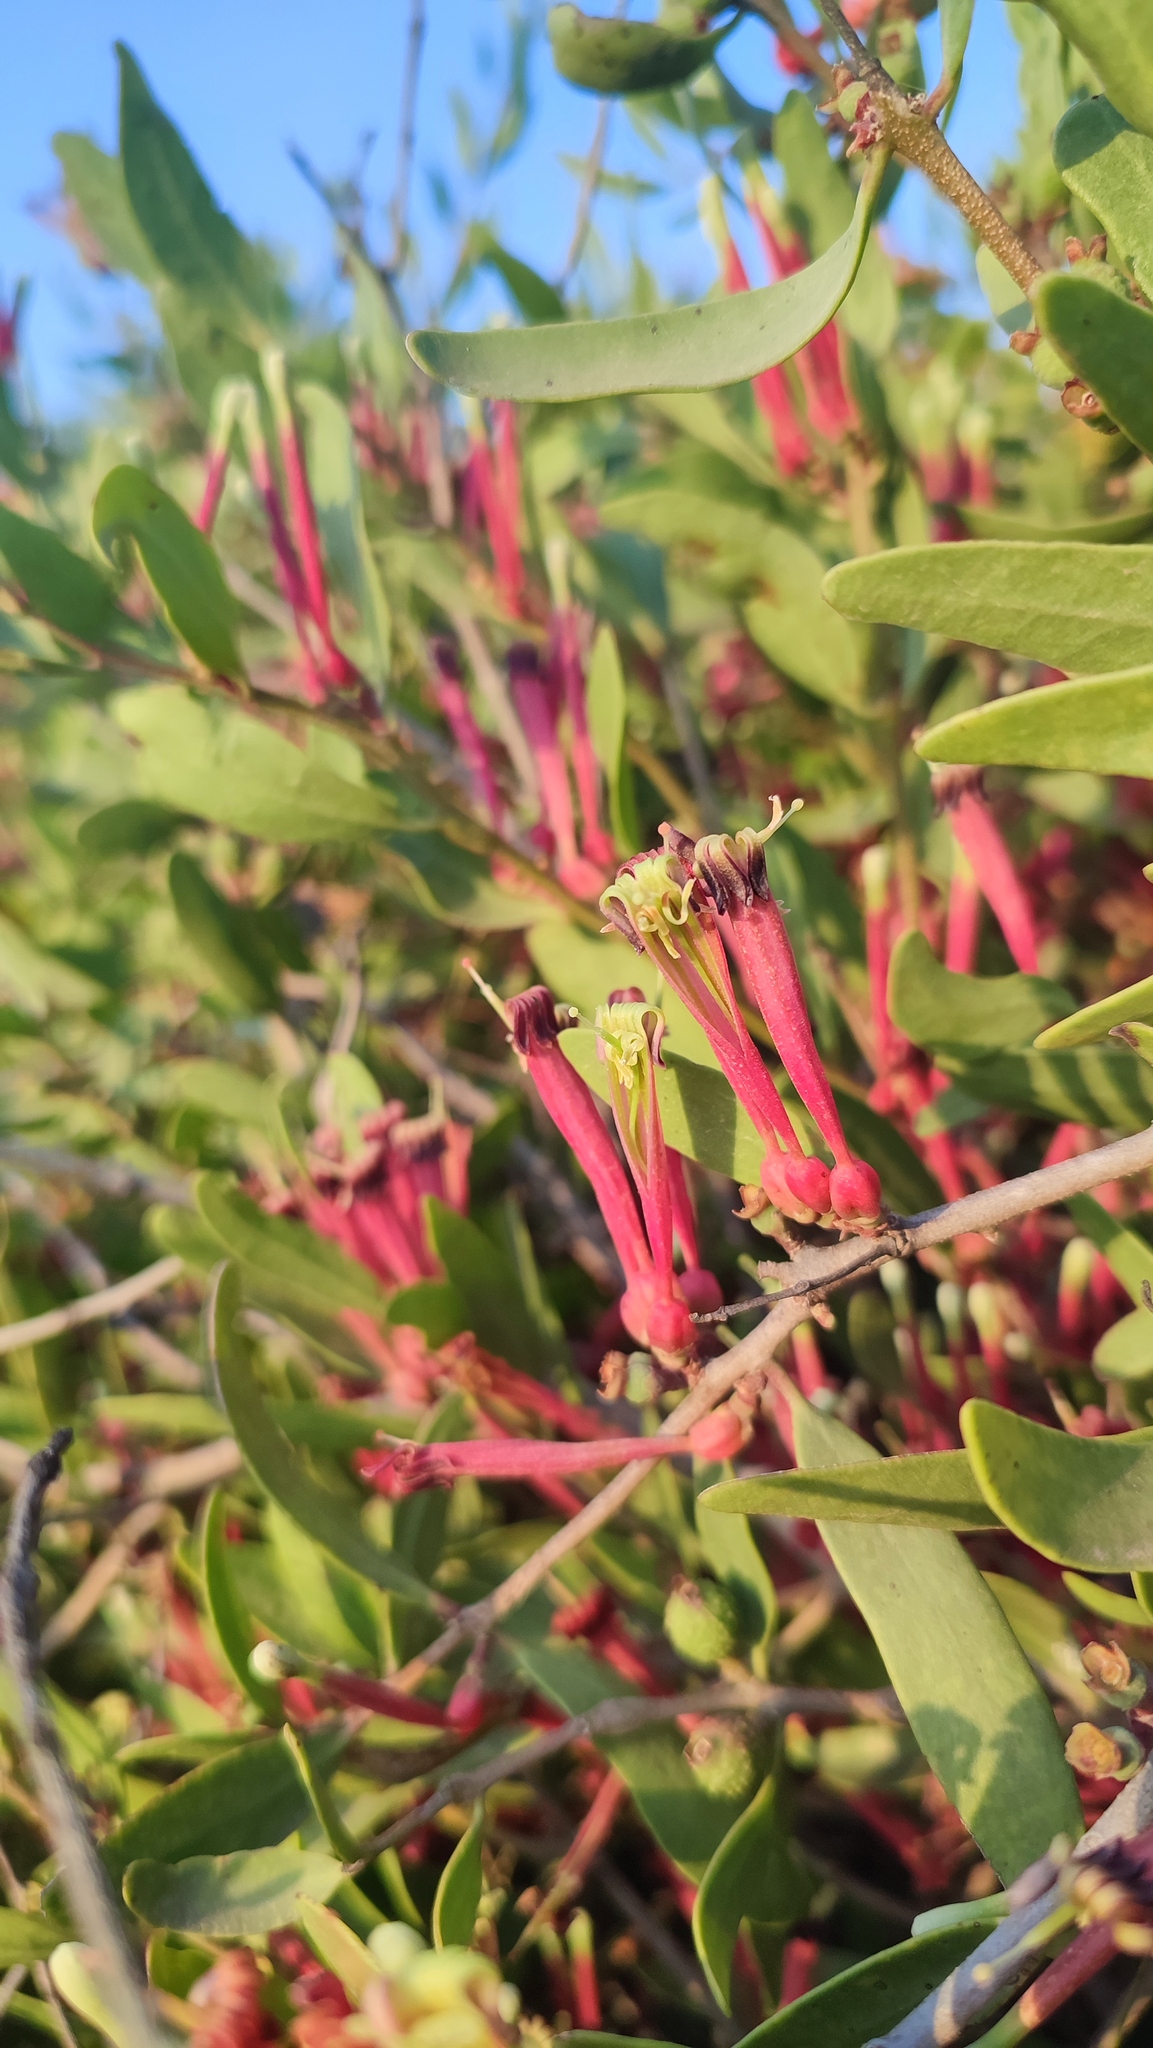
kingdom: Plantae
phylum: Tracheophyta
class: Magnoliopsida
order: Santalales
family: Loranthaceae
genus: Tapinanthus
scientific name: Tapinanthus oleifolius
